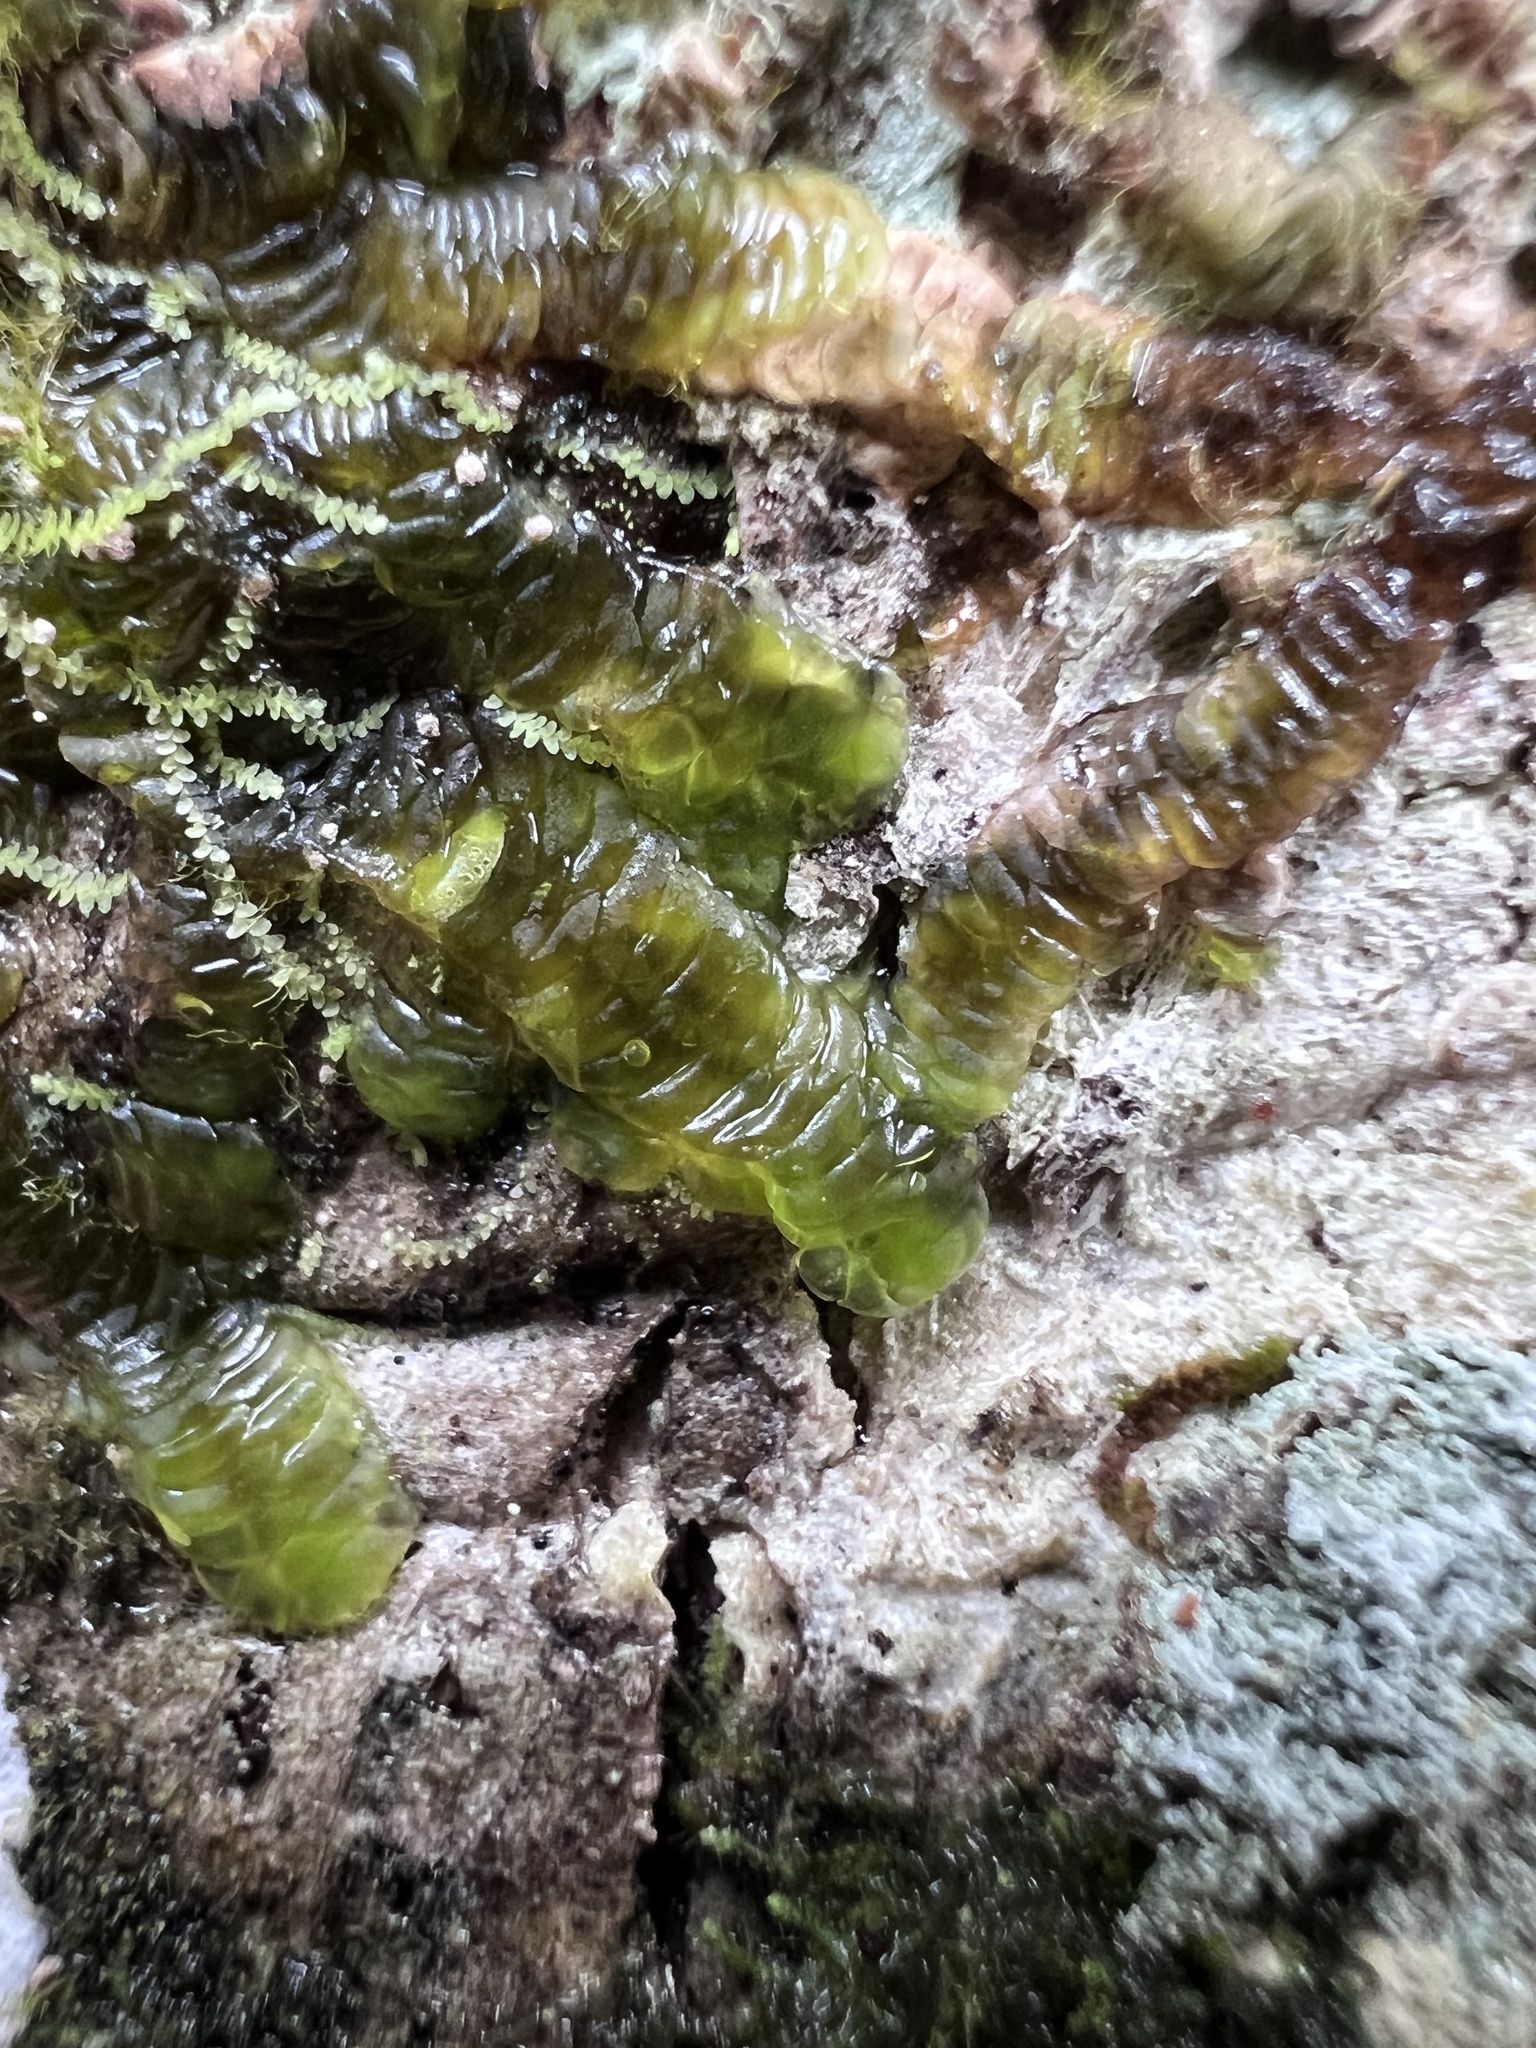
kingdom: Plantae
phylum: Marchantiophyta
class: Jungermanniopsida
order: Porellales
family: Radulaceae
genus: Radula
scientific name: Radula complanata
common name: Flat-leaved scalewort
